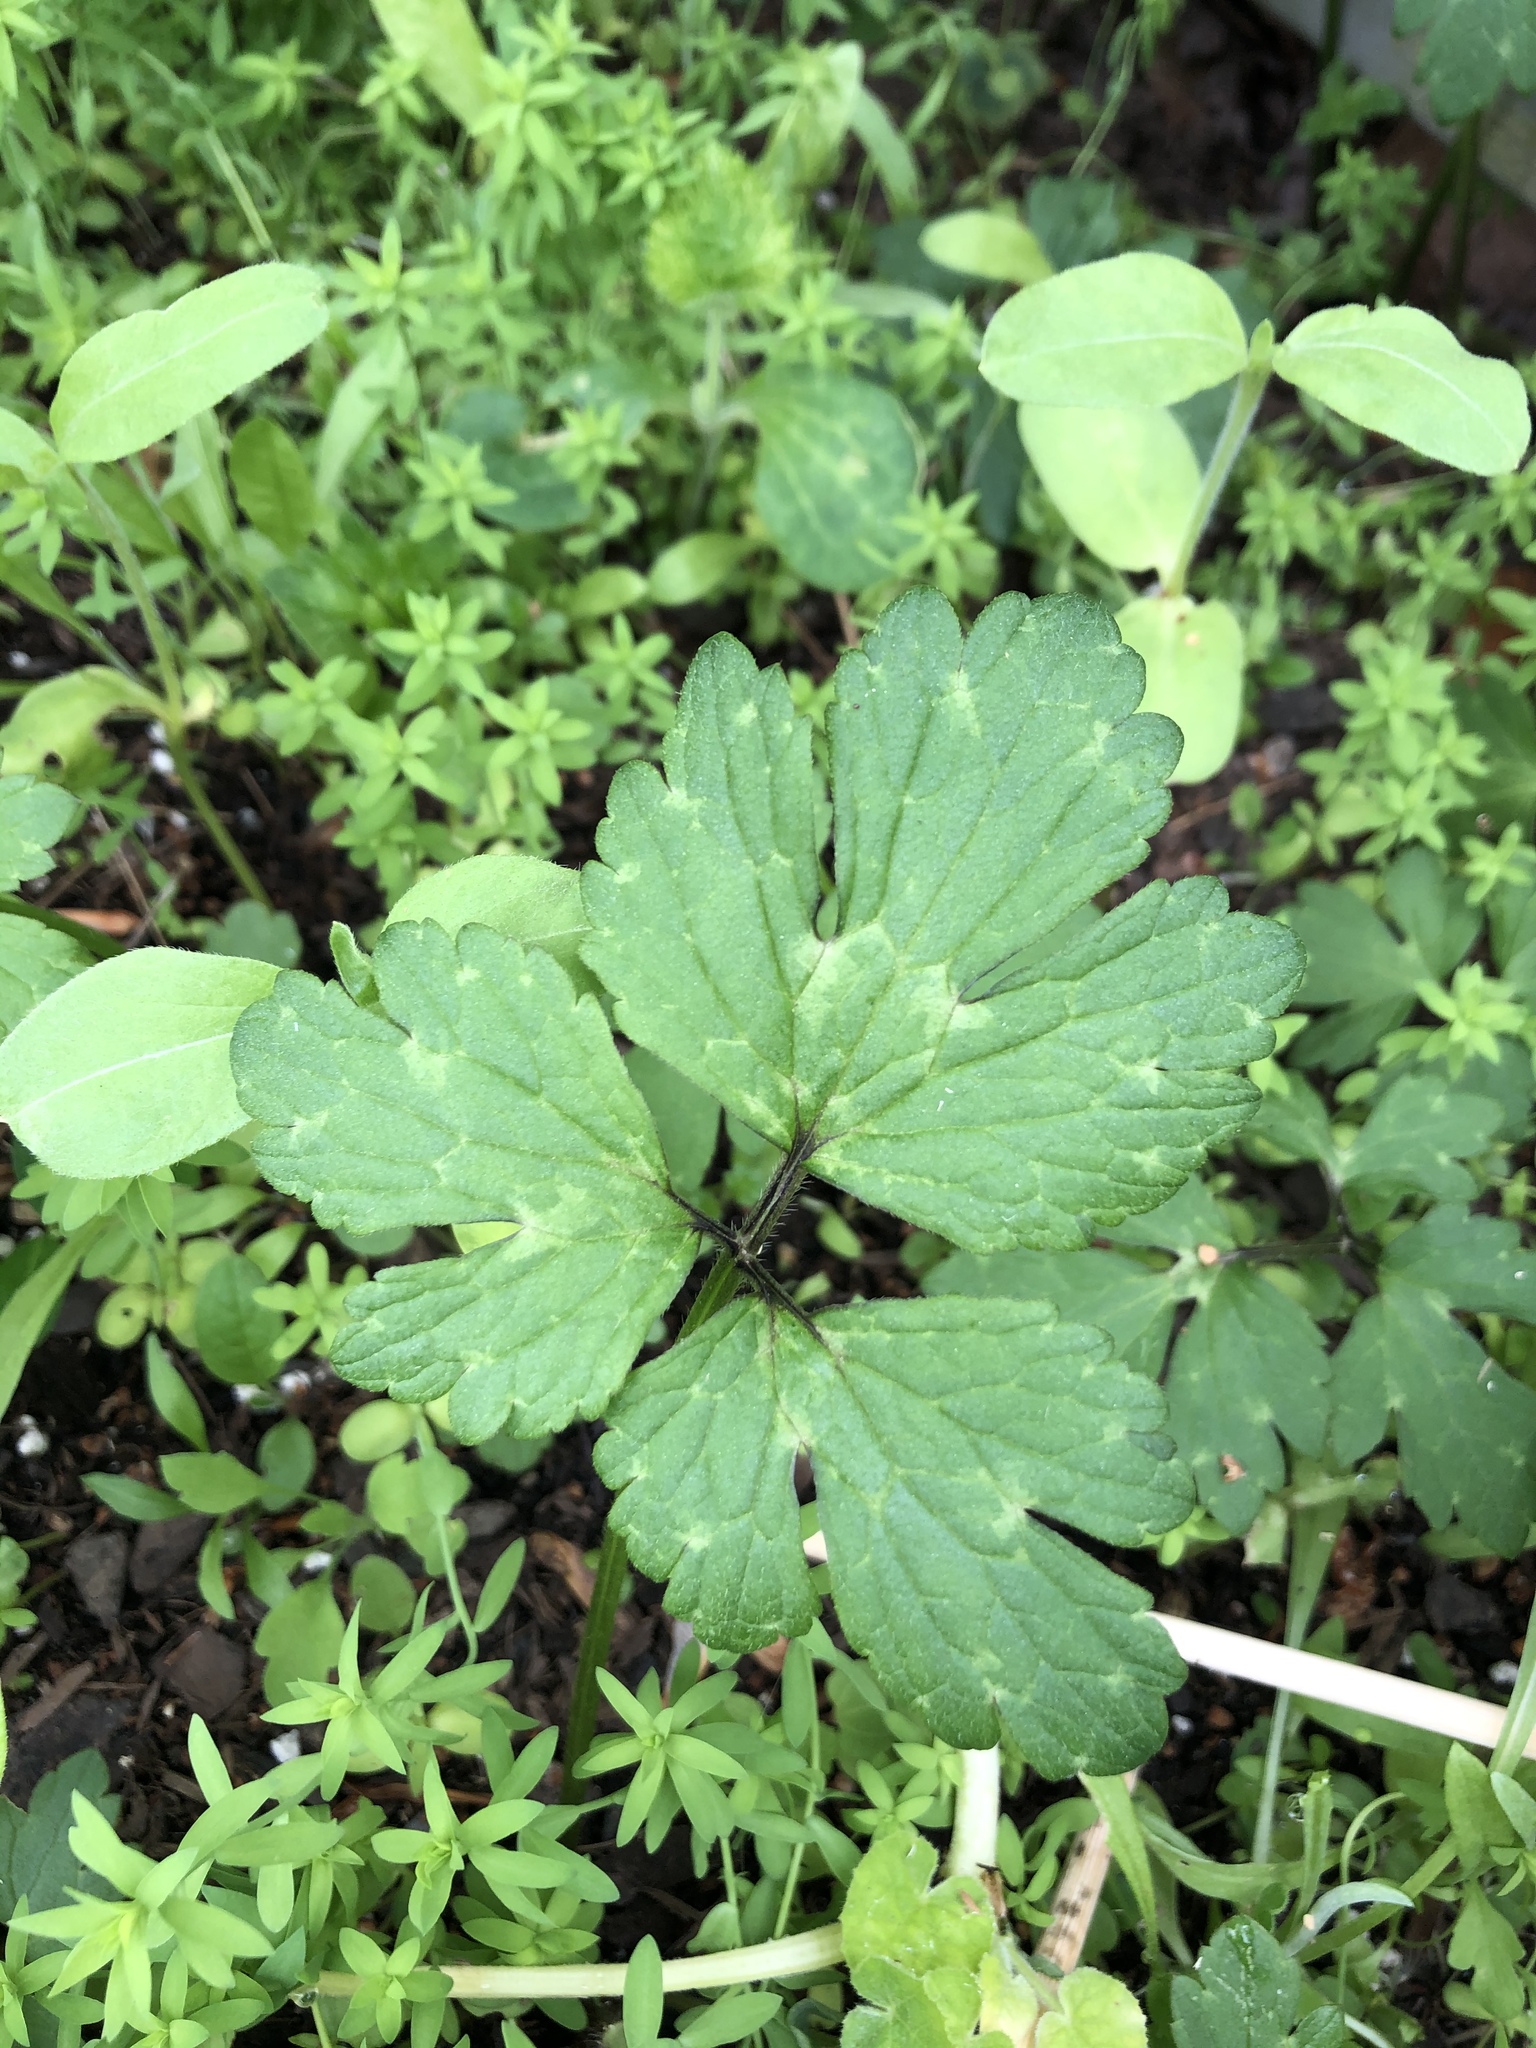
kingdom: Plantae
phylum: Tracheophyta
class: Magnoliopsida
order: Ranunculales
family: Ranunculaceae
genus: Ranunculus
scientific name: Ranunculus repens
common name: Creeping buttercup
